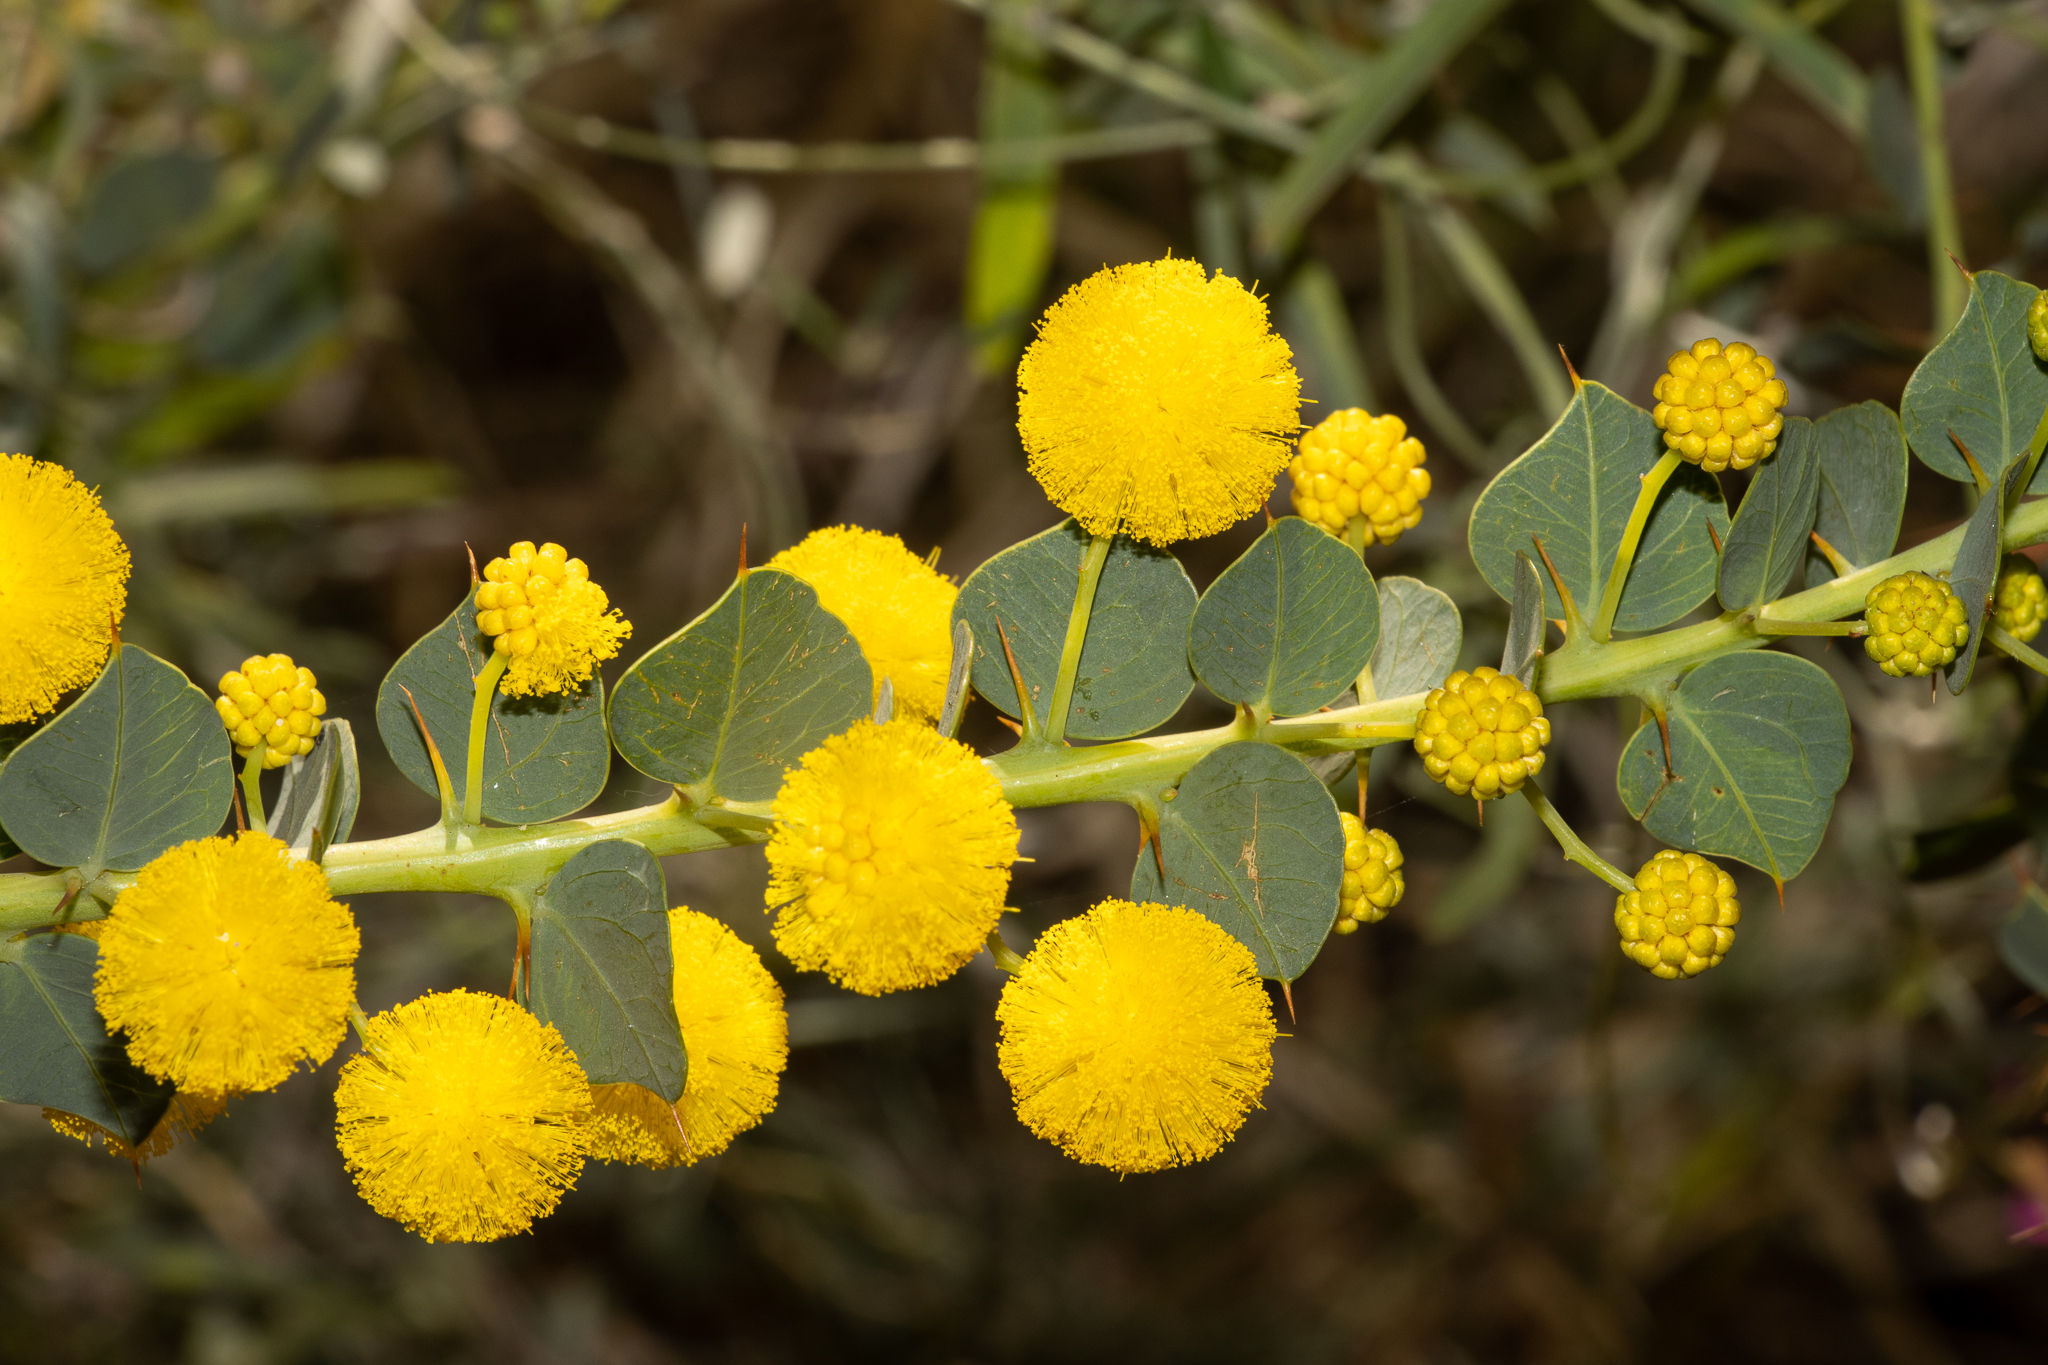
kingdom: Plantae
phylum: Tracheophyta
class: Magnoliopsida
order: Fabales
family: Fabaceae
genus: Acacia
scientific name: Acacia strongylophylla
